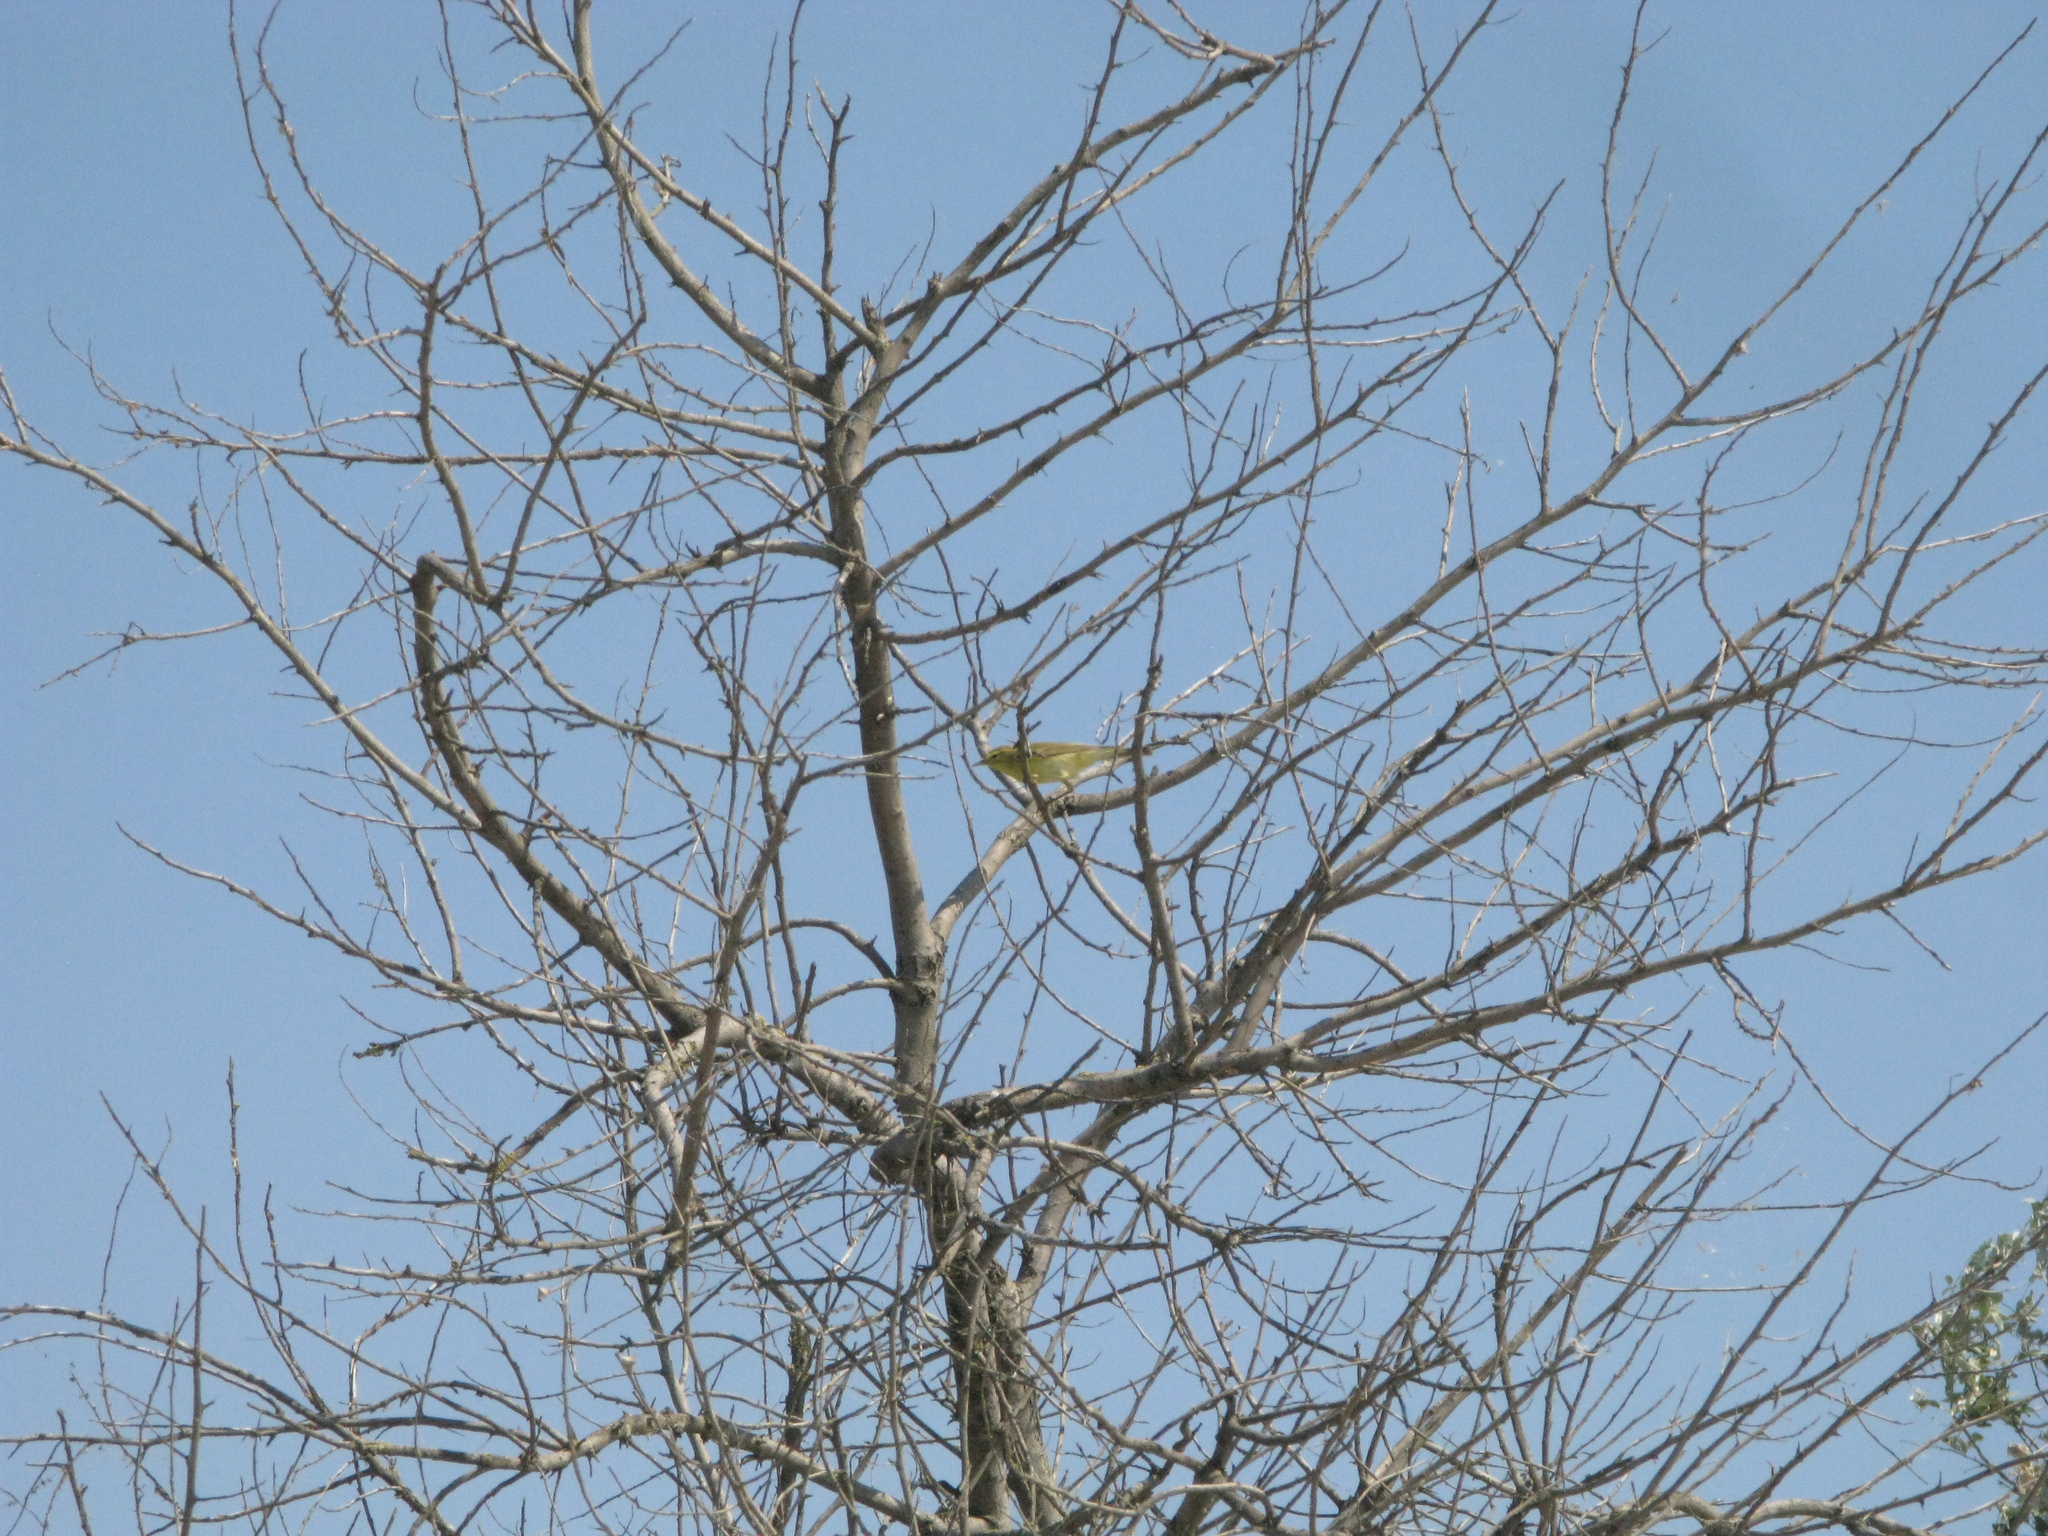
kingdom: Animalia
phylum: Chordata
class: Aves
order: Passeriformes
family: Phylloscopidae
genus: Phylloscopus
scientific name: Phylloscopus trochilus
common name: Willow warbler
